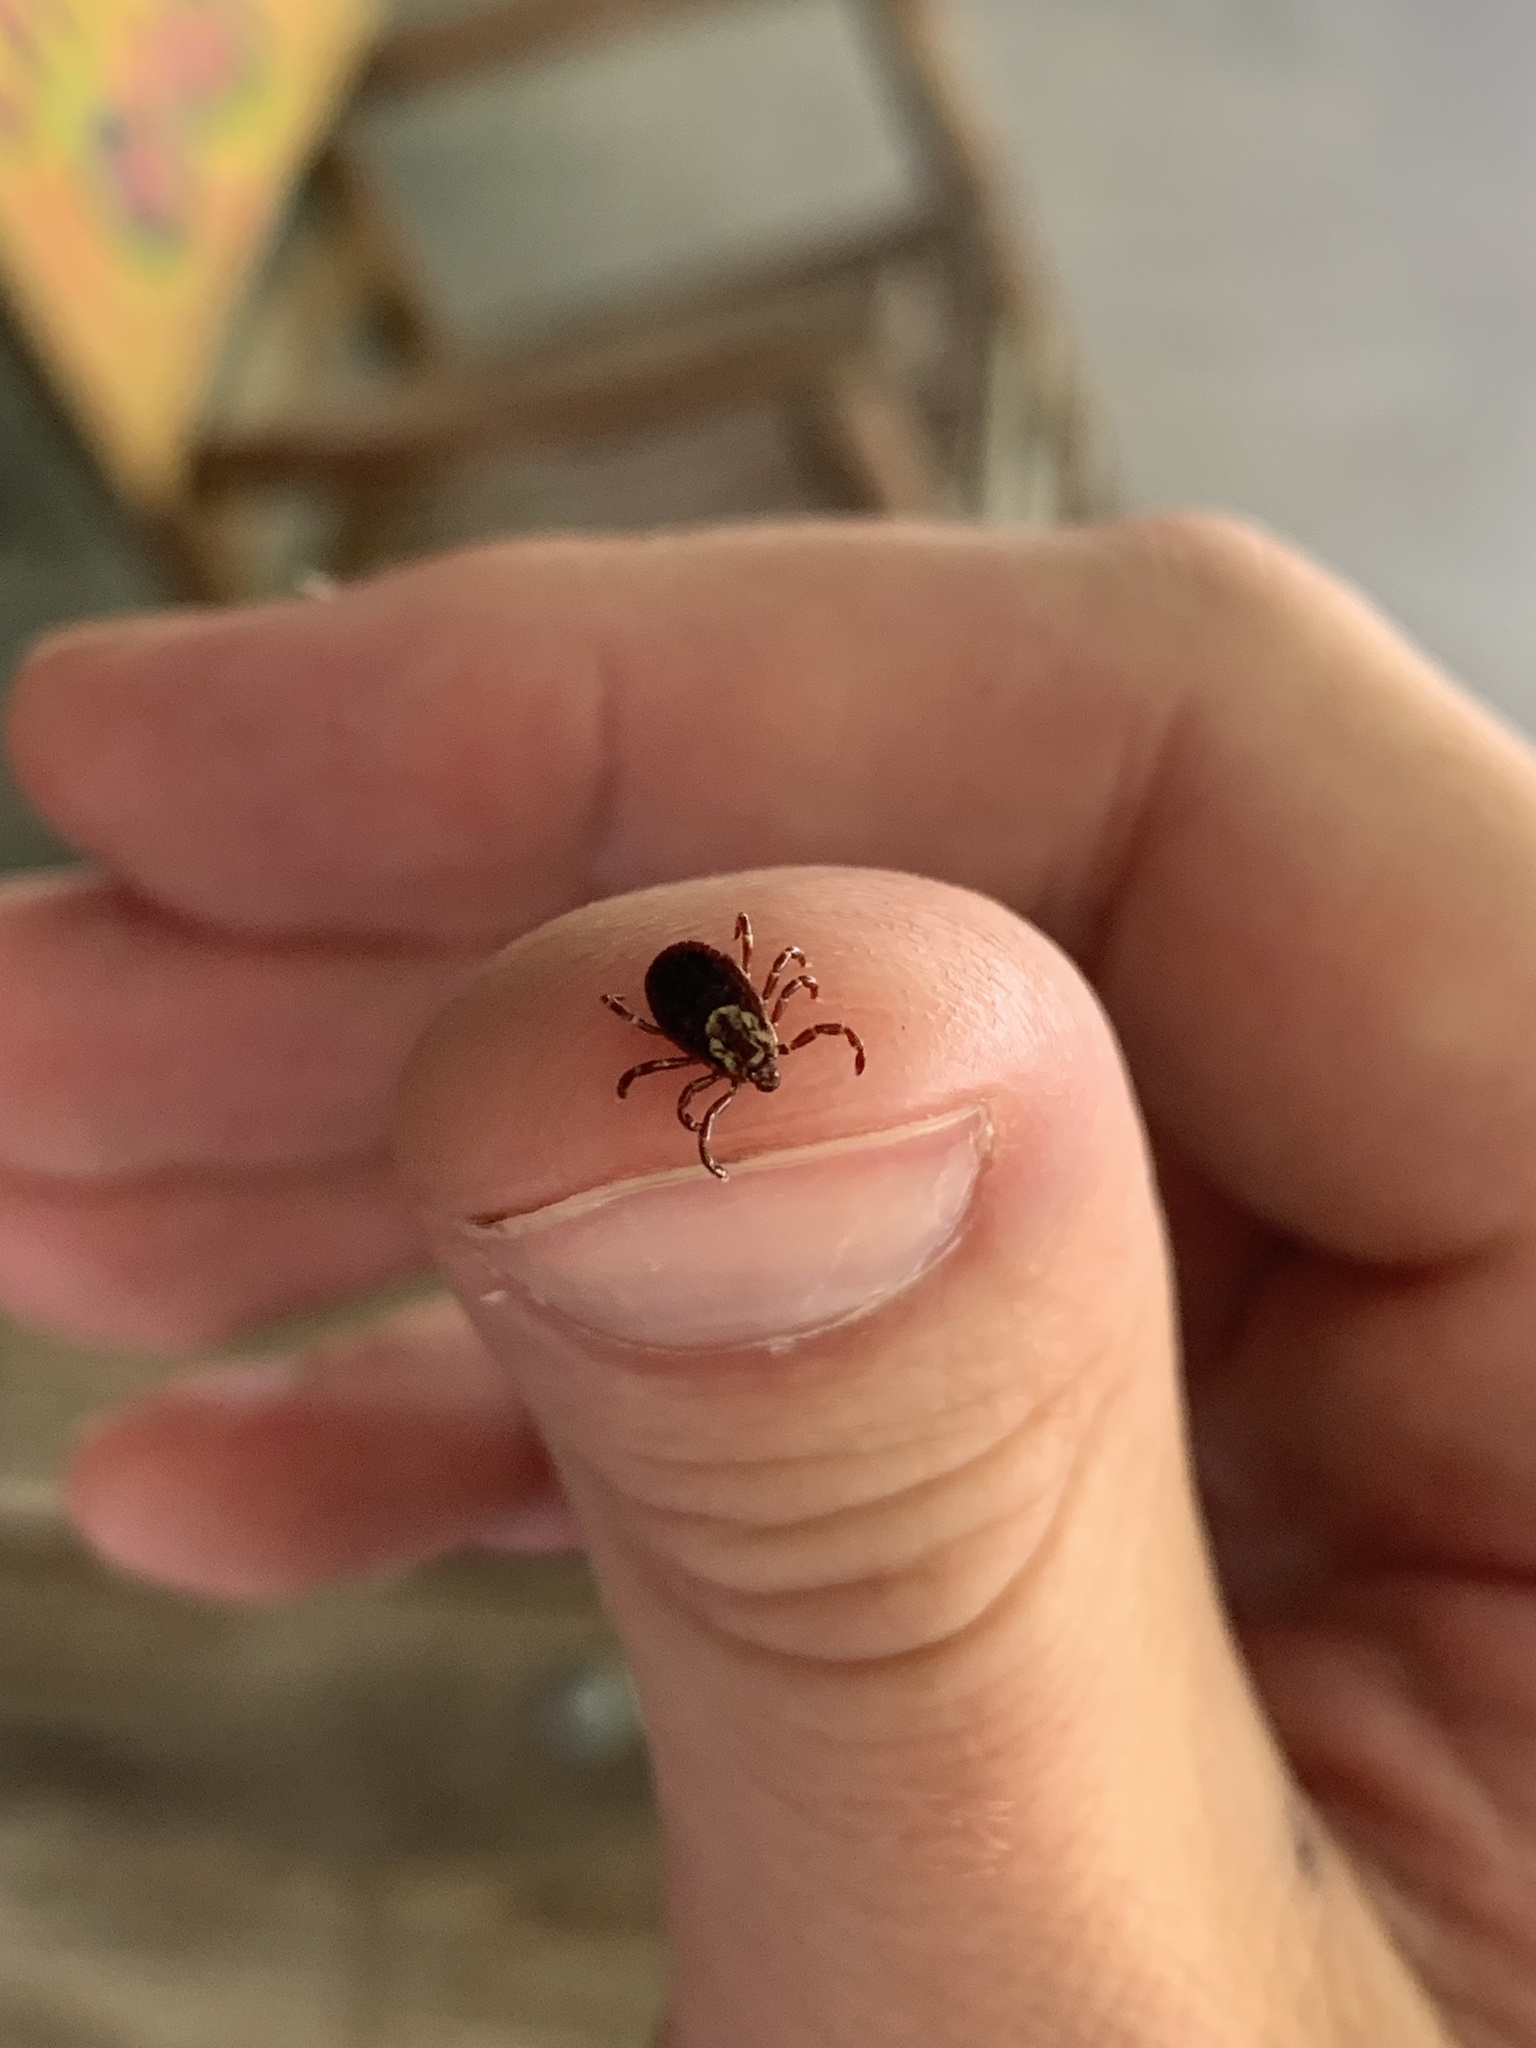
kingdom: Animalia
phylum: Arthropoda
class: Arachnida
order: Ixodida
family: Ixodidae
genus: Dermacentor
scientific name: Dermacentor variabilis
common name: American dog tick
